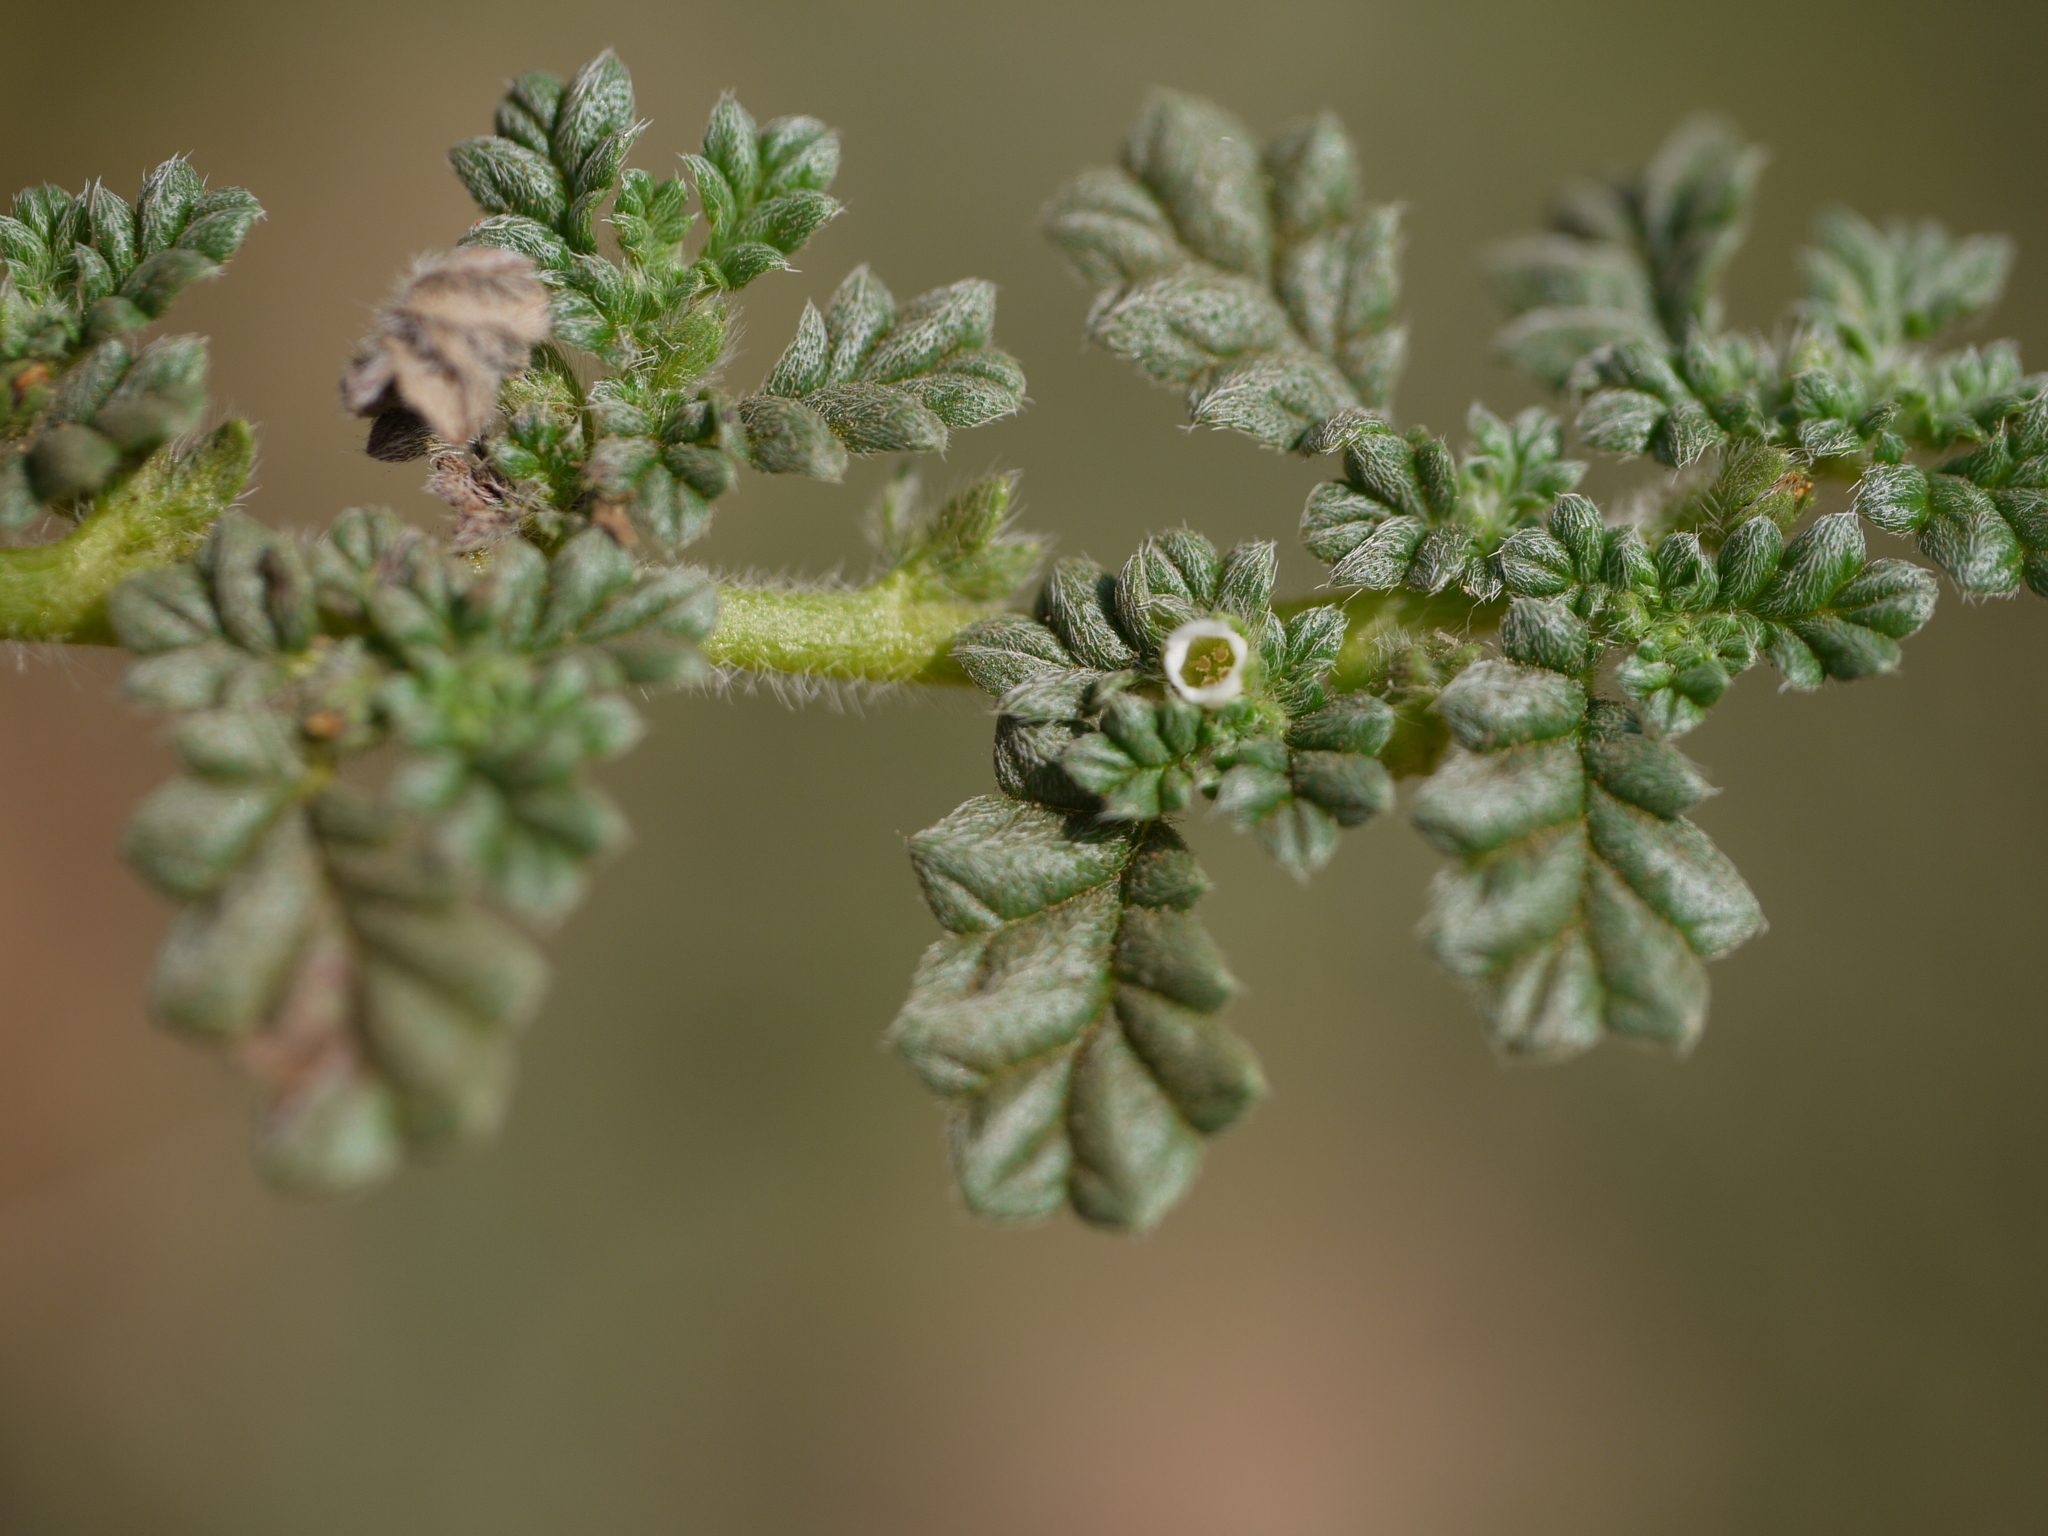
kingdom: Plantae
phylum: Tracheophyta
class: Magnoliopsida
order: Boraginales
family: Coldeniaceae
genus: Coldenia
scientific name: Coldenia procumbens
